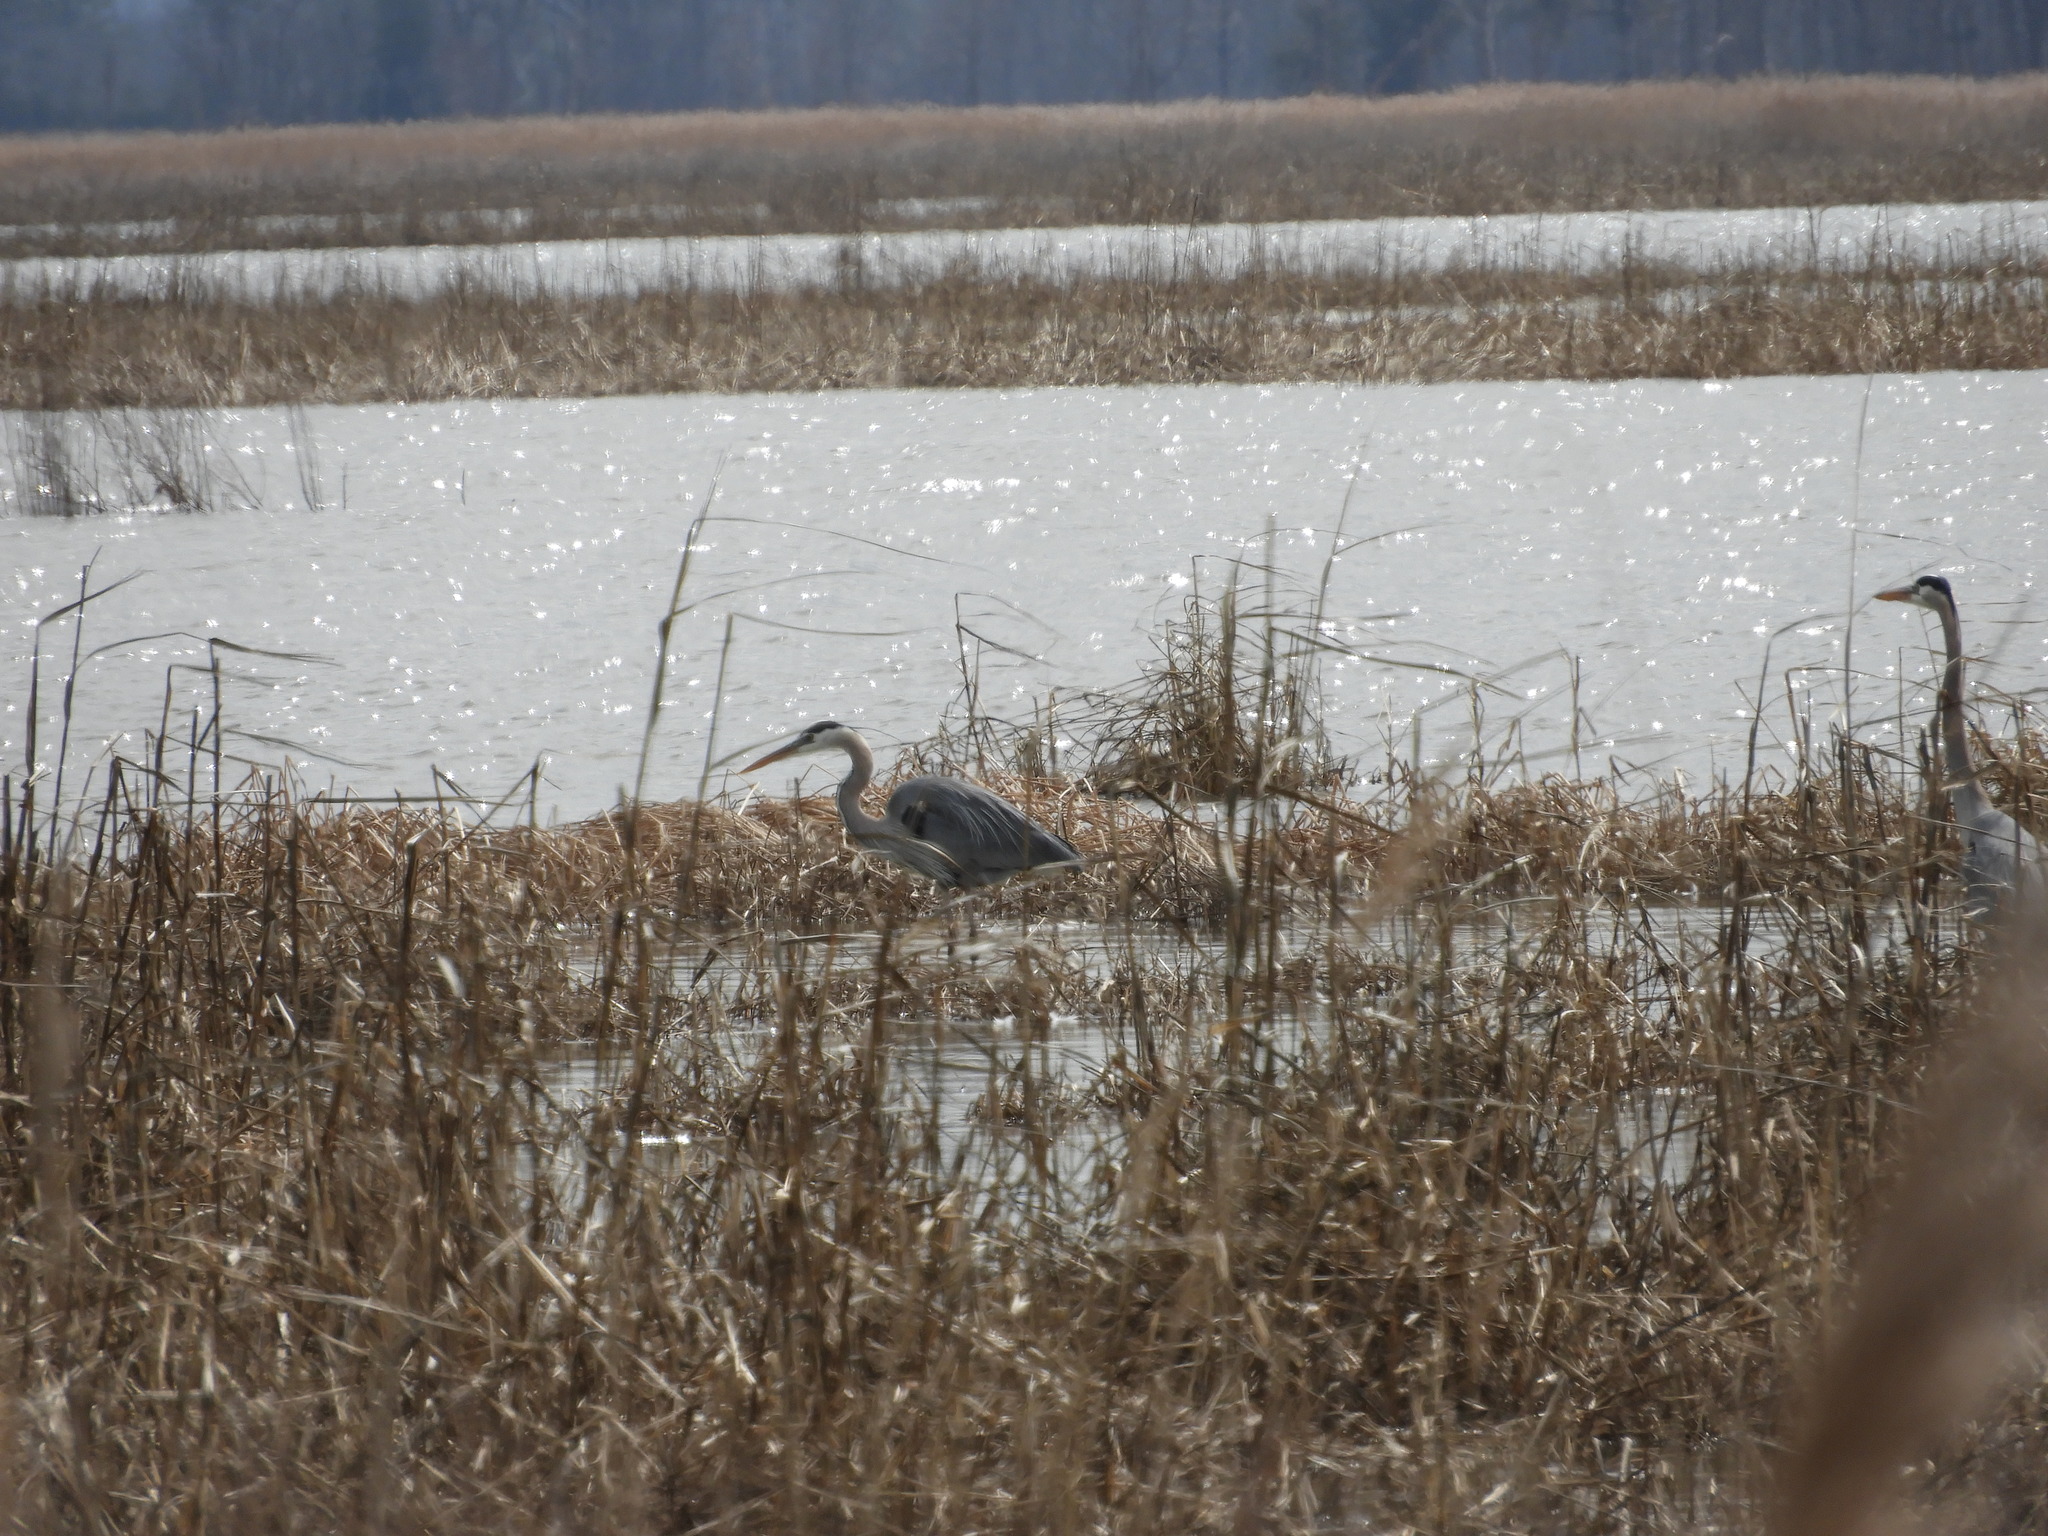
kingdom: Animalia
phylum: Chordata
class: Aves
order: Pelecaniformes
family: Ardeidae
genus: Ardea
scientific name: Ardea herodias
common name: Great blue heron
